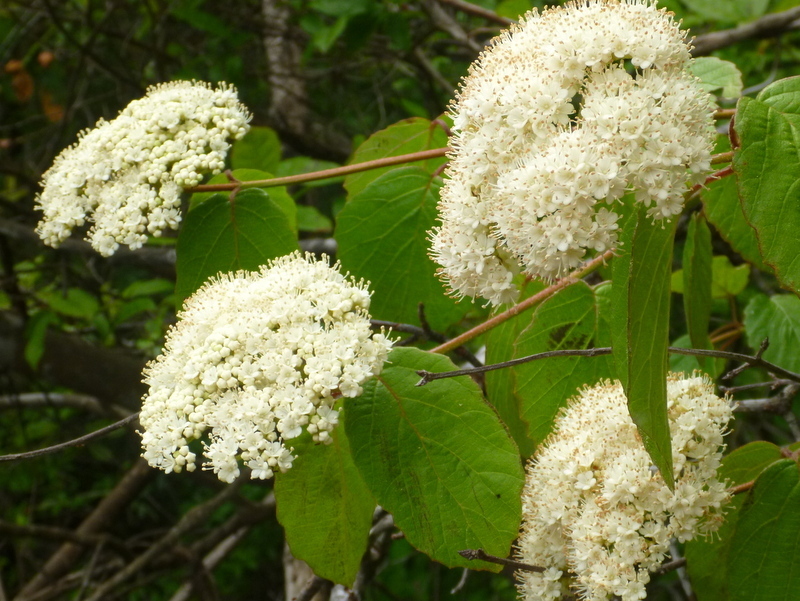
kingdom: Plantae
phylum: Tracheophyta
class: Magnoliopsida
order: Dipsacales
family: Viburnaceae
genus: Viburnum
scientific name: Viburnum scabrellum
